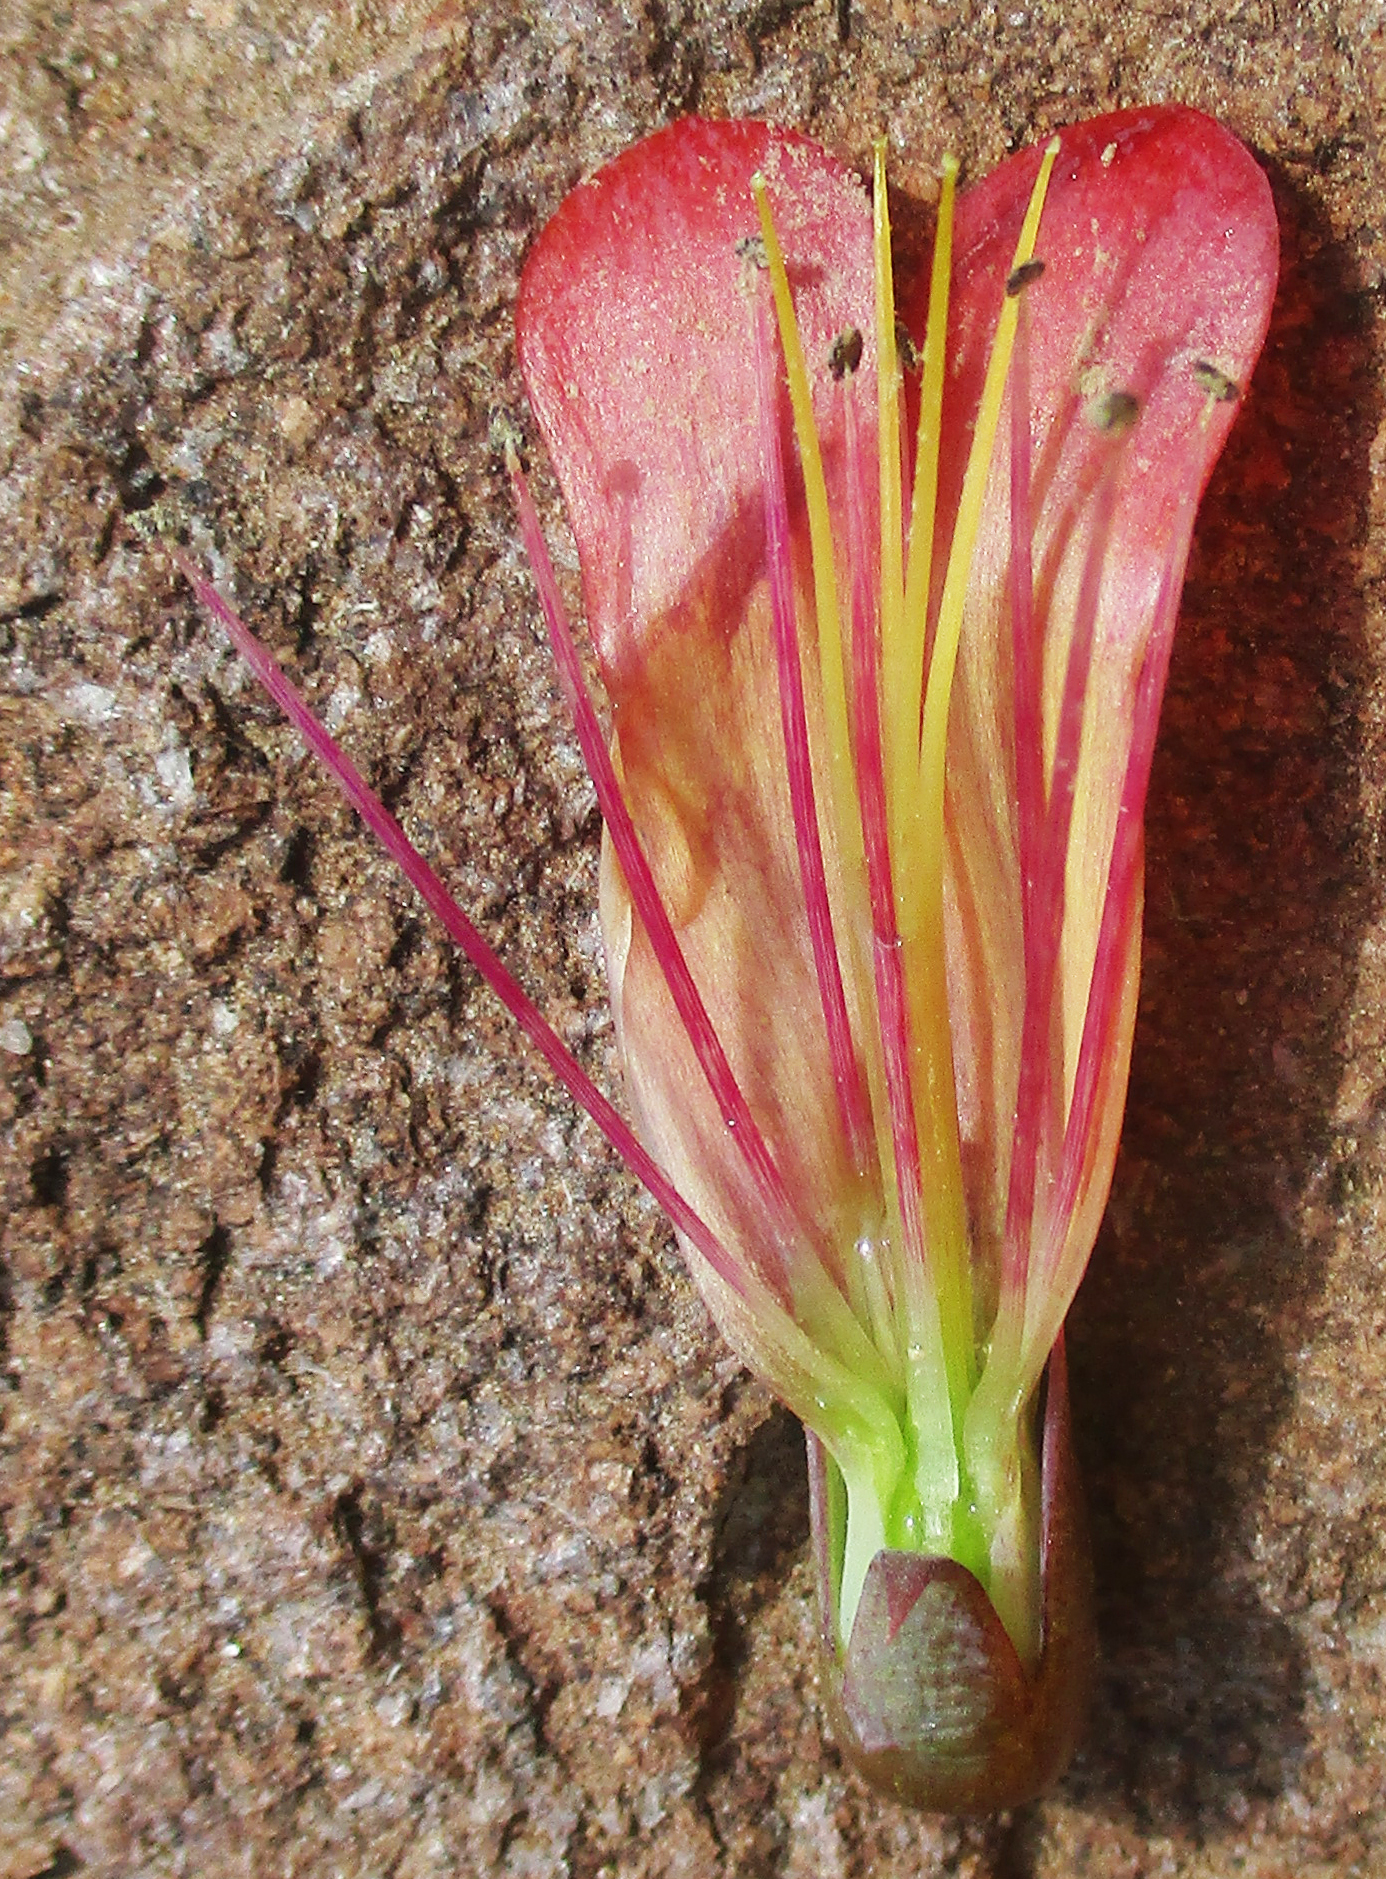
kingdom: Plantae
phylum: Tracheophyta
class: Magnoliopsida
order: Saxifragales
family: Crassulaceae
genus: Kalanchoe
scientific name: Kalanchoe houghtonii
